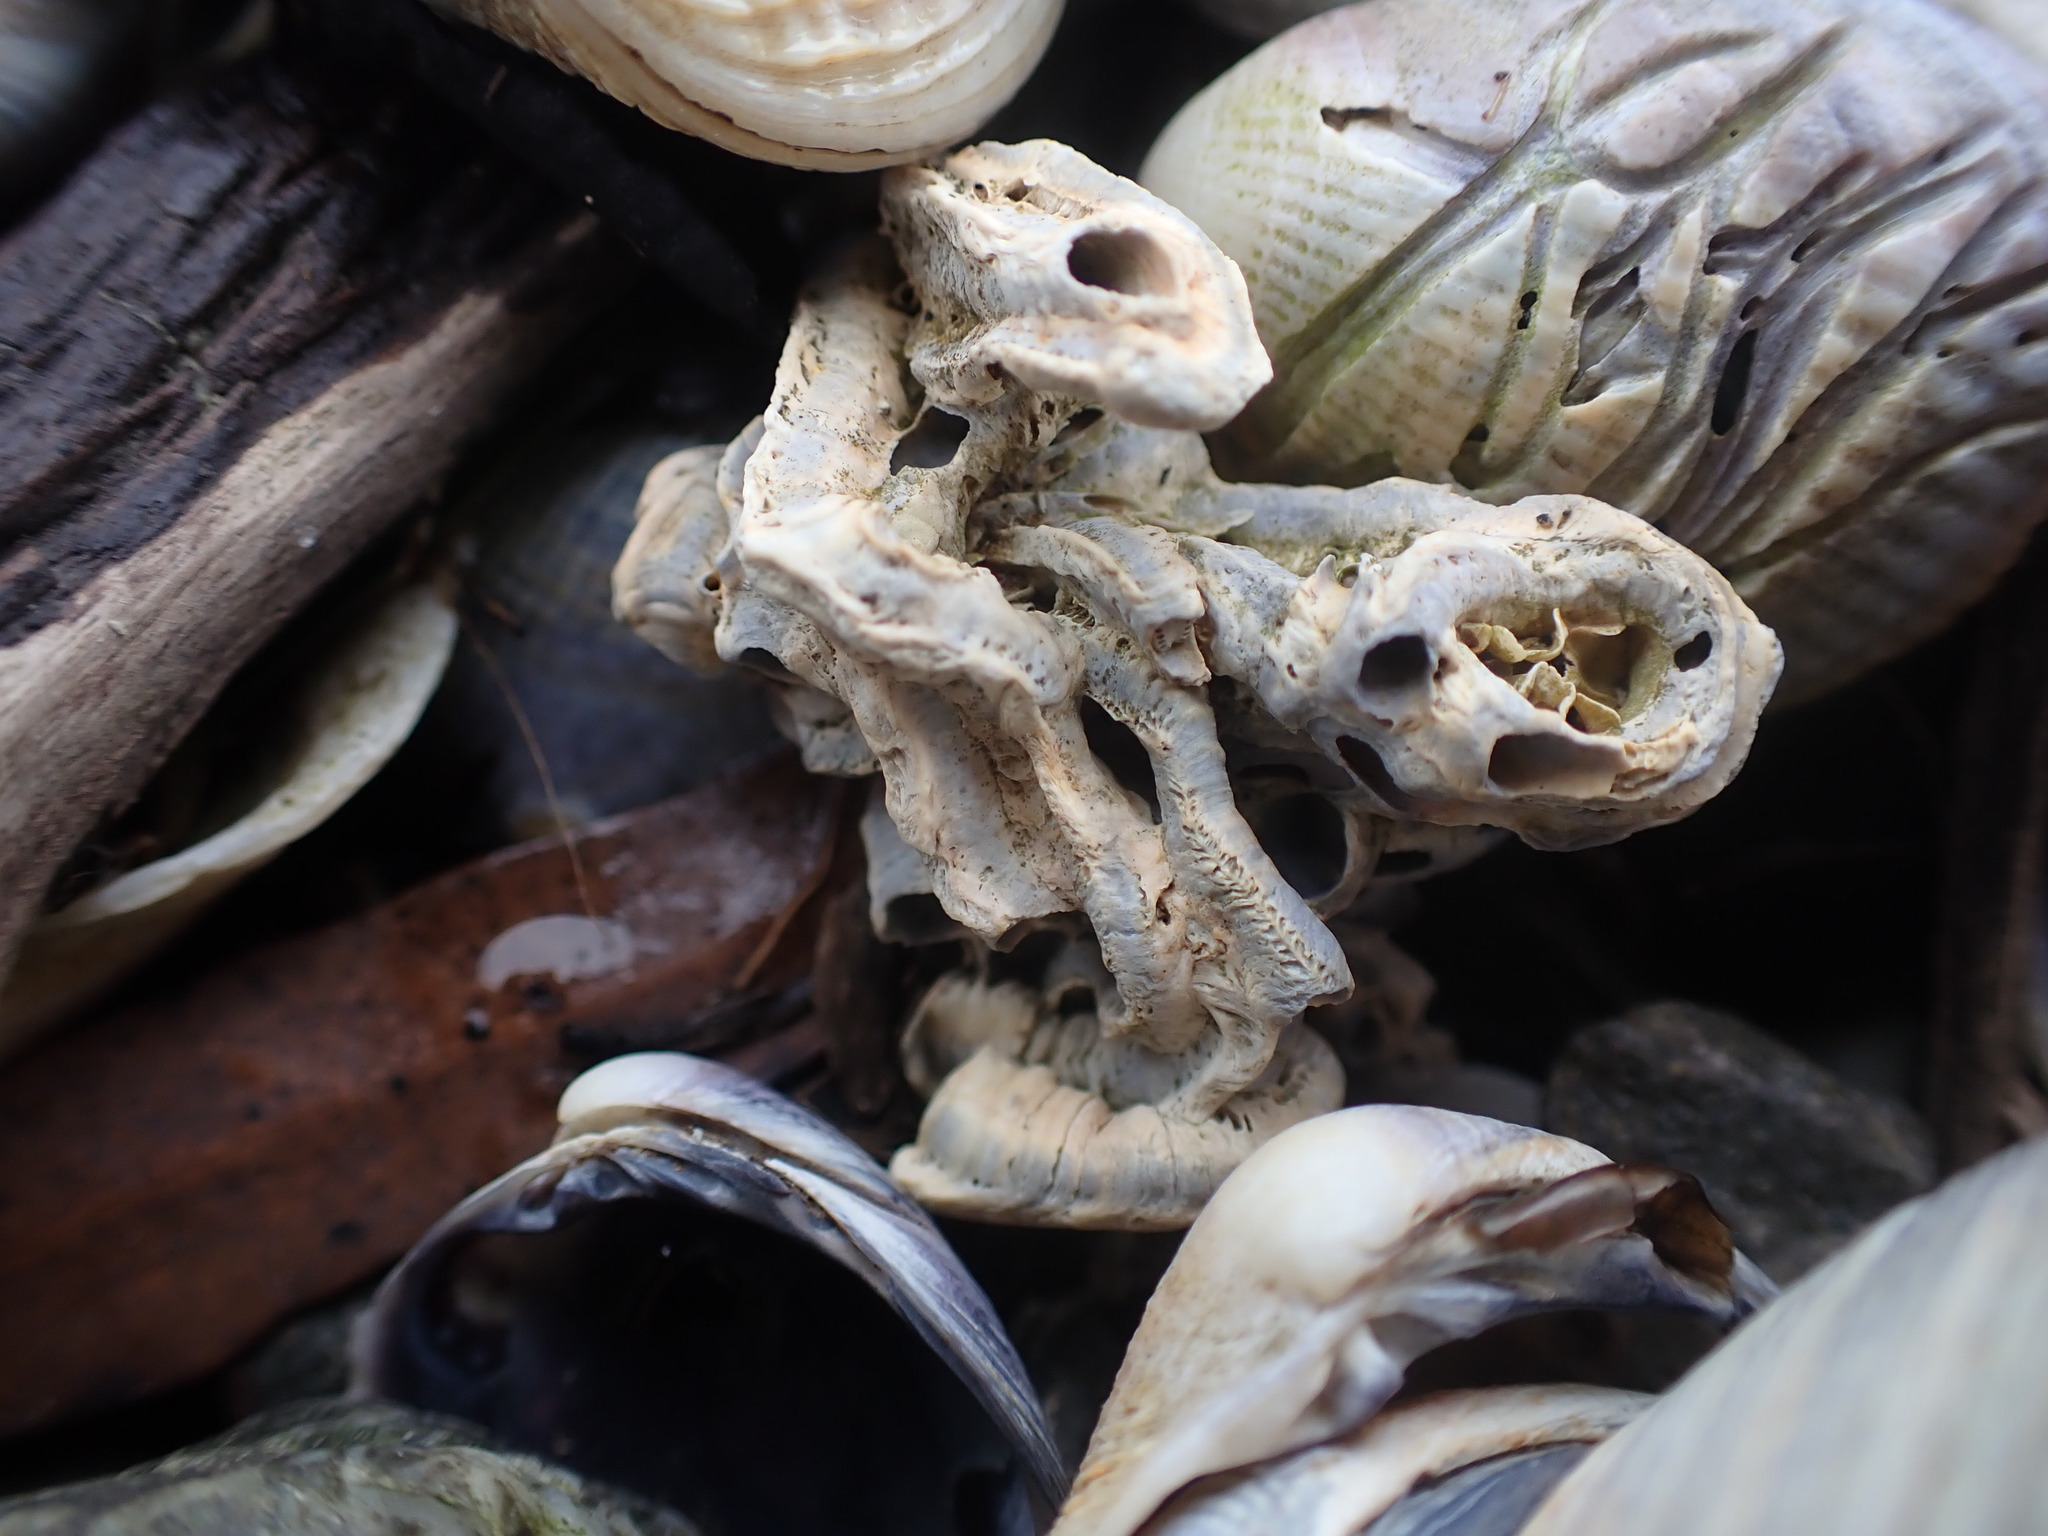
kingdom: Animalia
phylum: Annelida
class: Polychaeta
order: Sabellida
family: Serpulidae
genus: Spirobranchus
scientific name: Spirobranchus cariniferus
